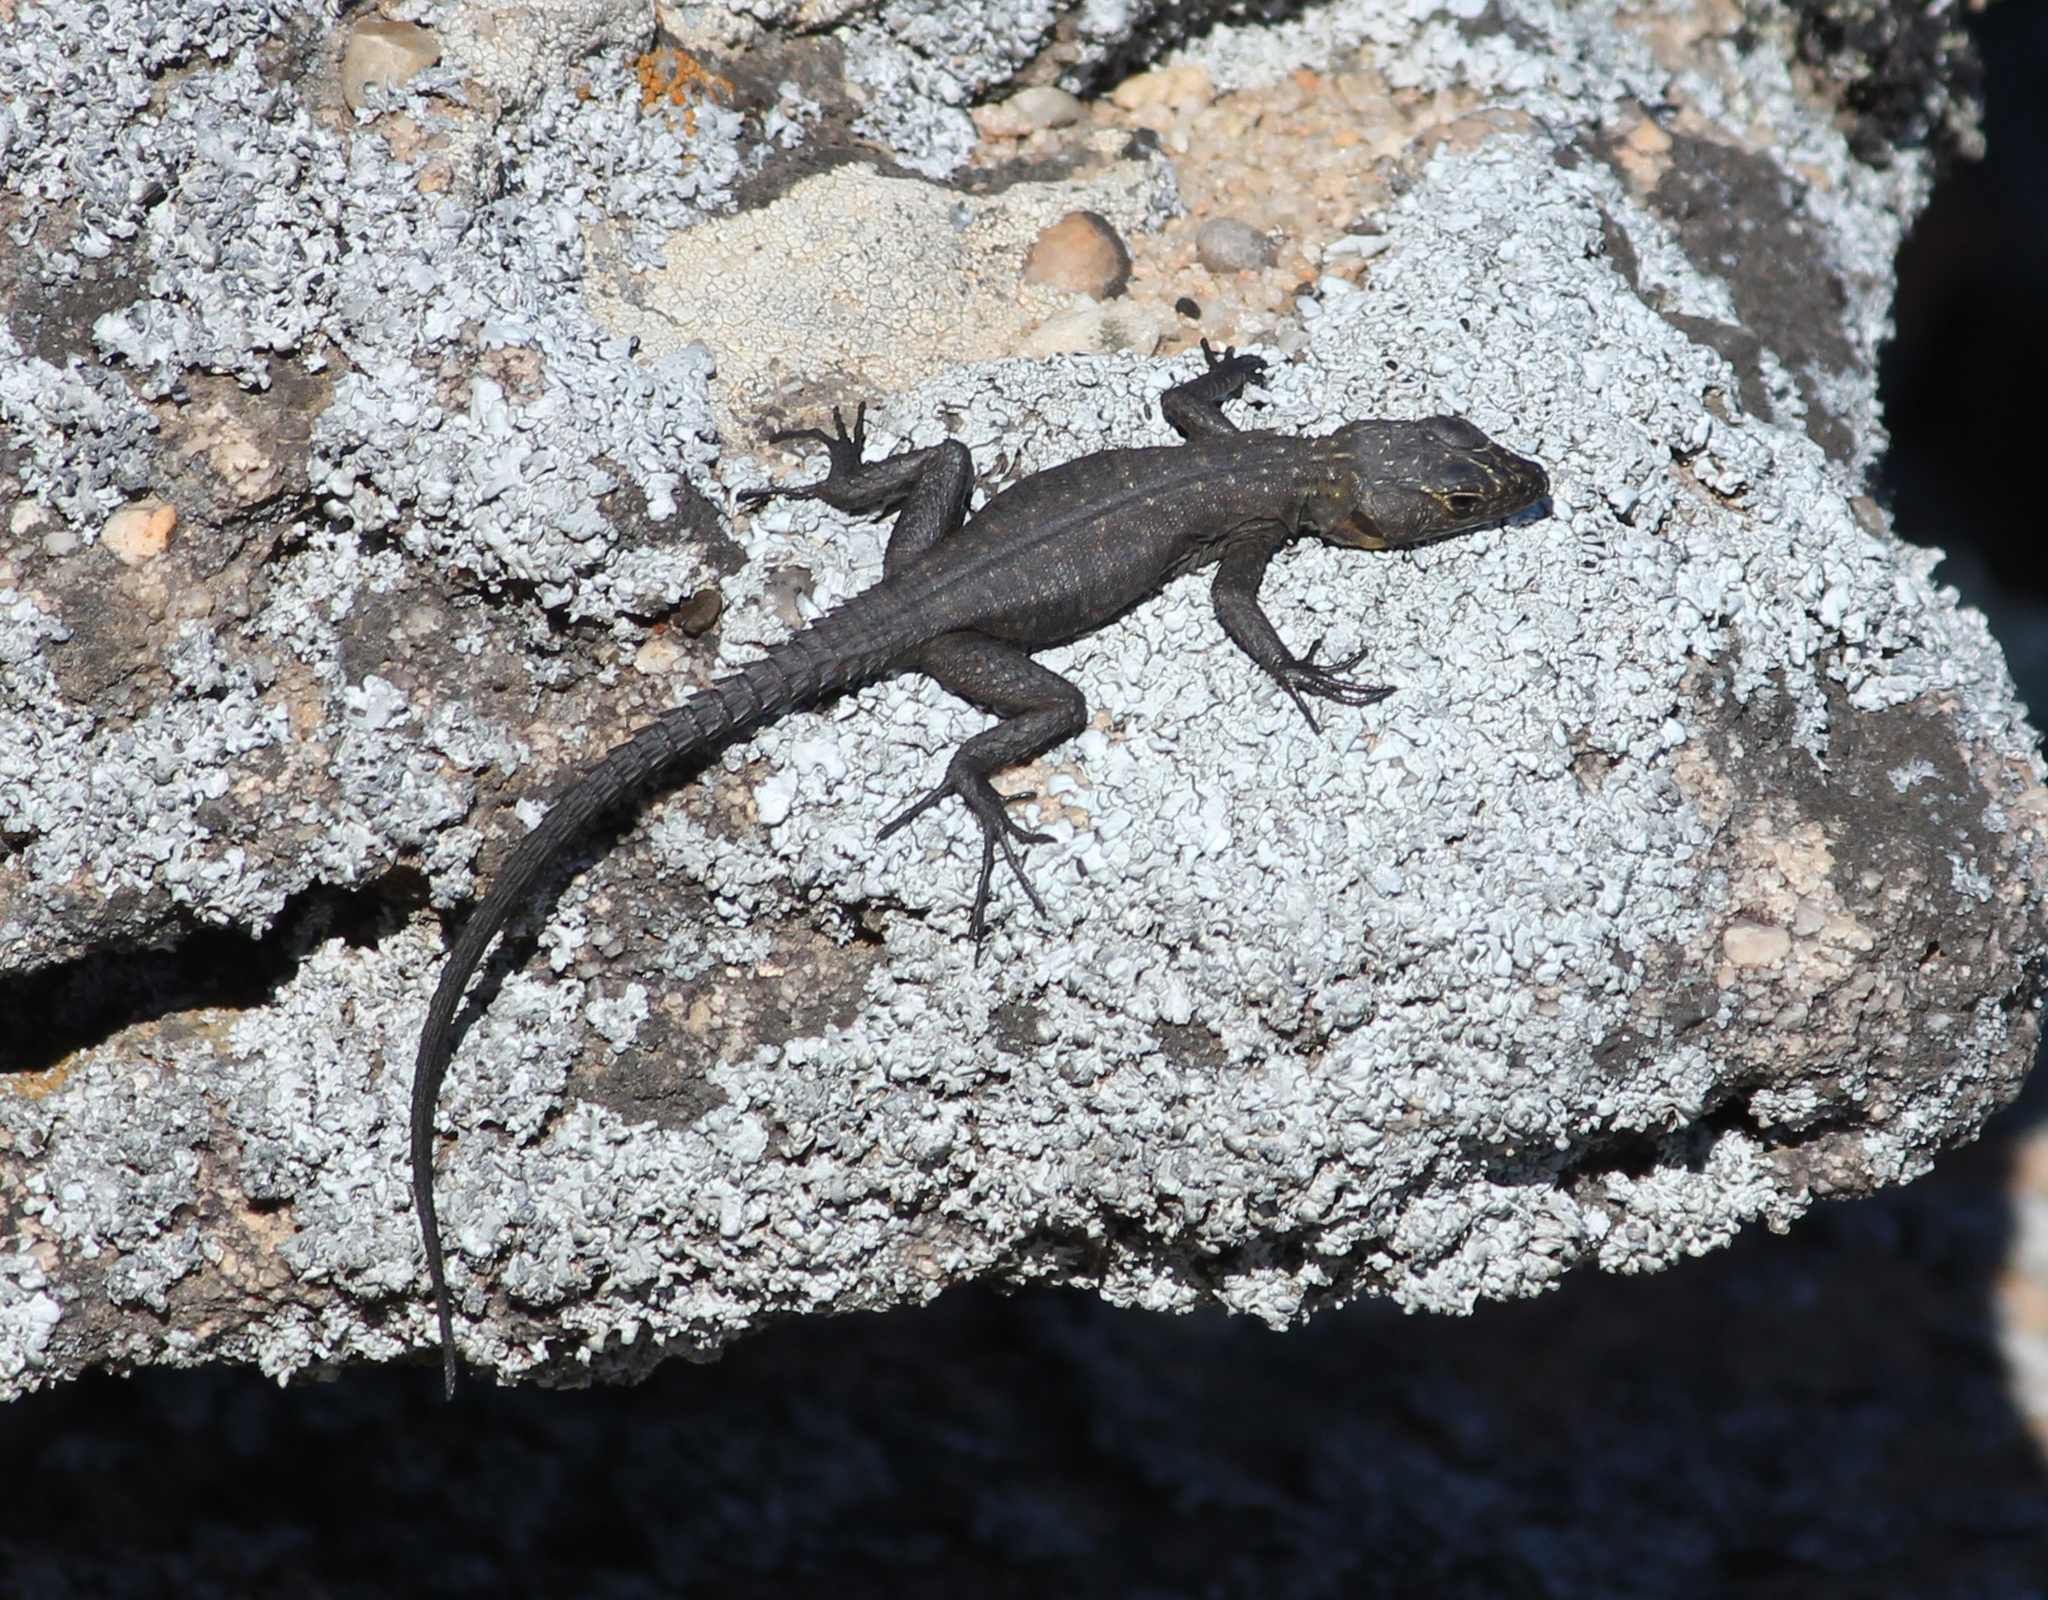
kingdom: Animalia
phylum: Chordata
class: Squamata
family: Cordylidae
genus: Hemicordylus
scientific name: Hemicordylus capensis
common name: Graceful crag lizard
